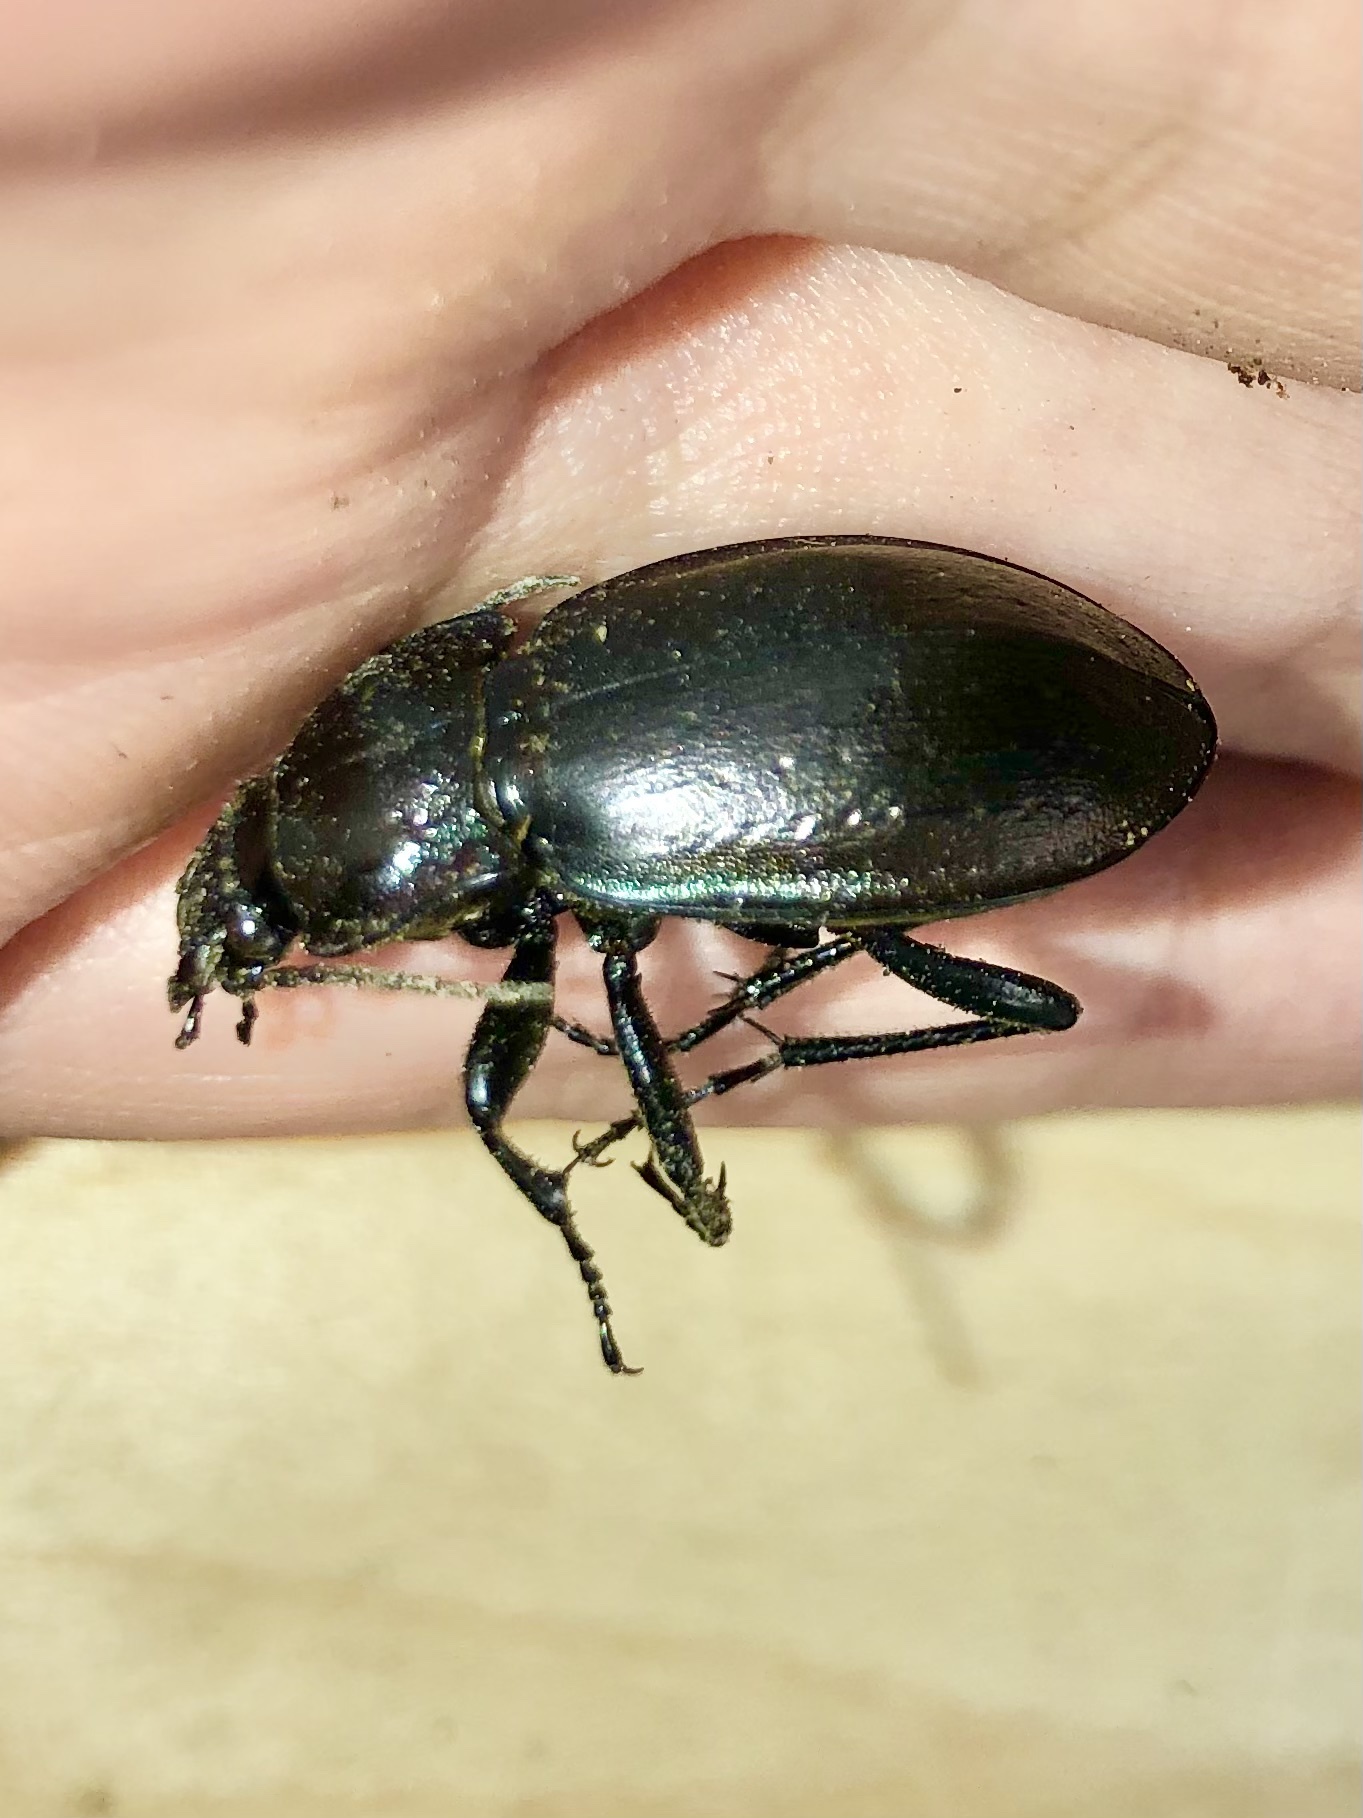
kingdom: Animalia
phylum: Arthropoda
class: Insecta
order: Coleoptera
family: Carabidae
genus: Carabus
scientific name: Carabus nemoralis
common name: European ground beetle
